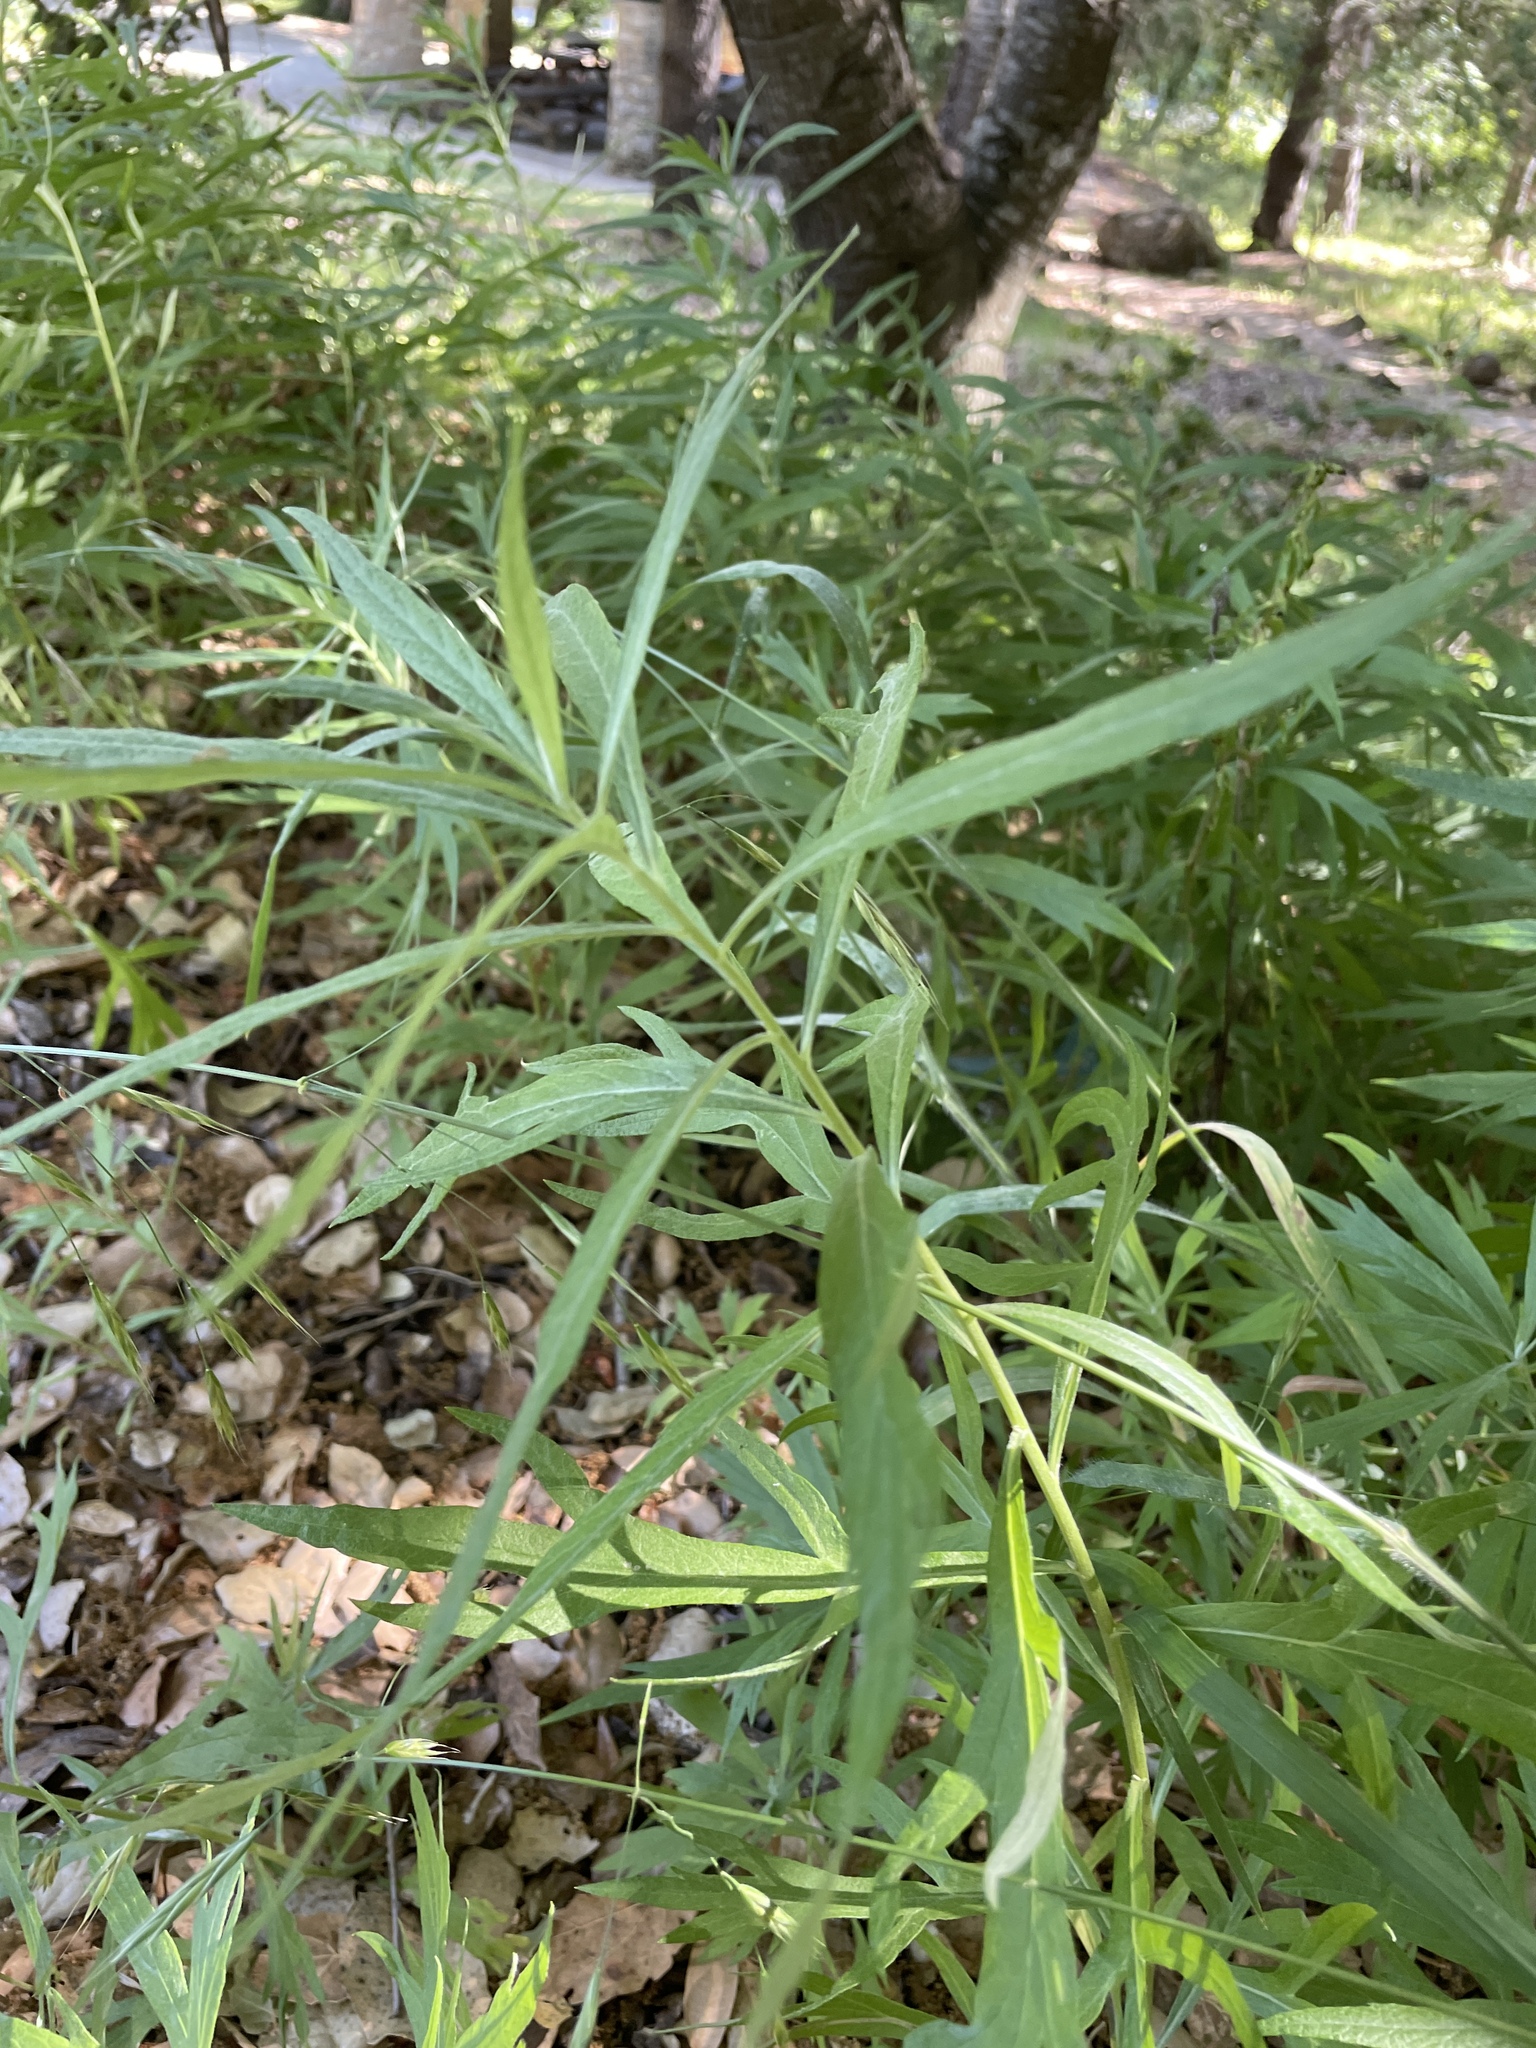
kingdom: Plantae
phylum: Tracheophyta
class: Magnoliopsida
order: Asterales
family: Asteraceae
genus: Artemisia
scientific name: Artemisia douglasiana
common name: Northwest mugwort
